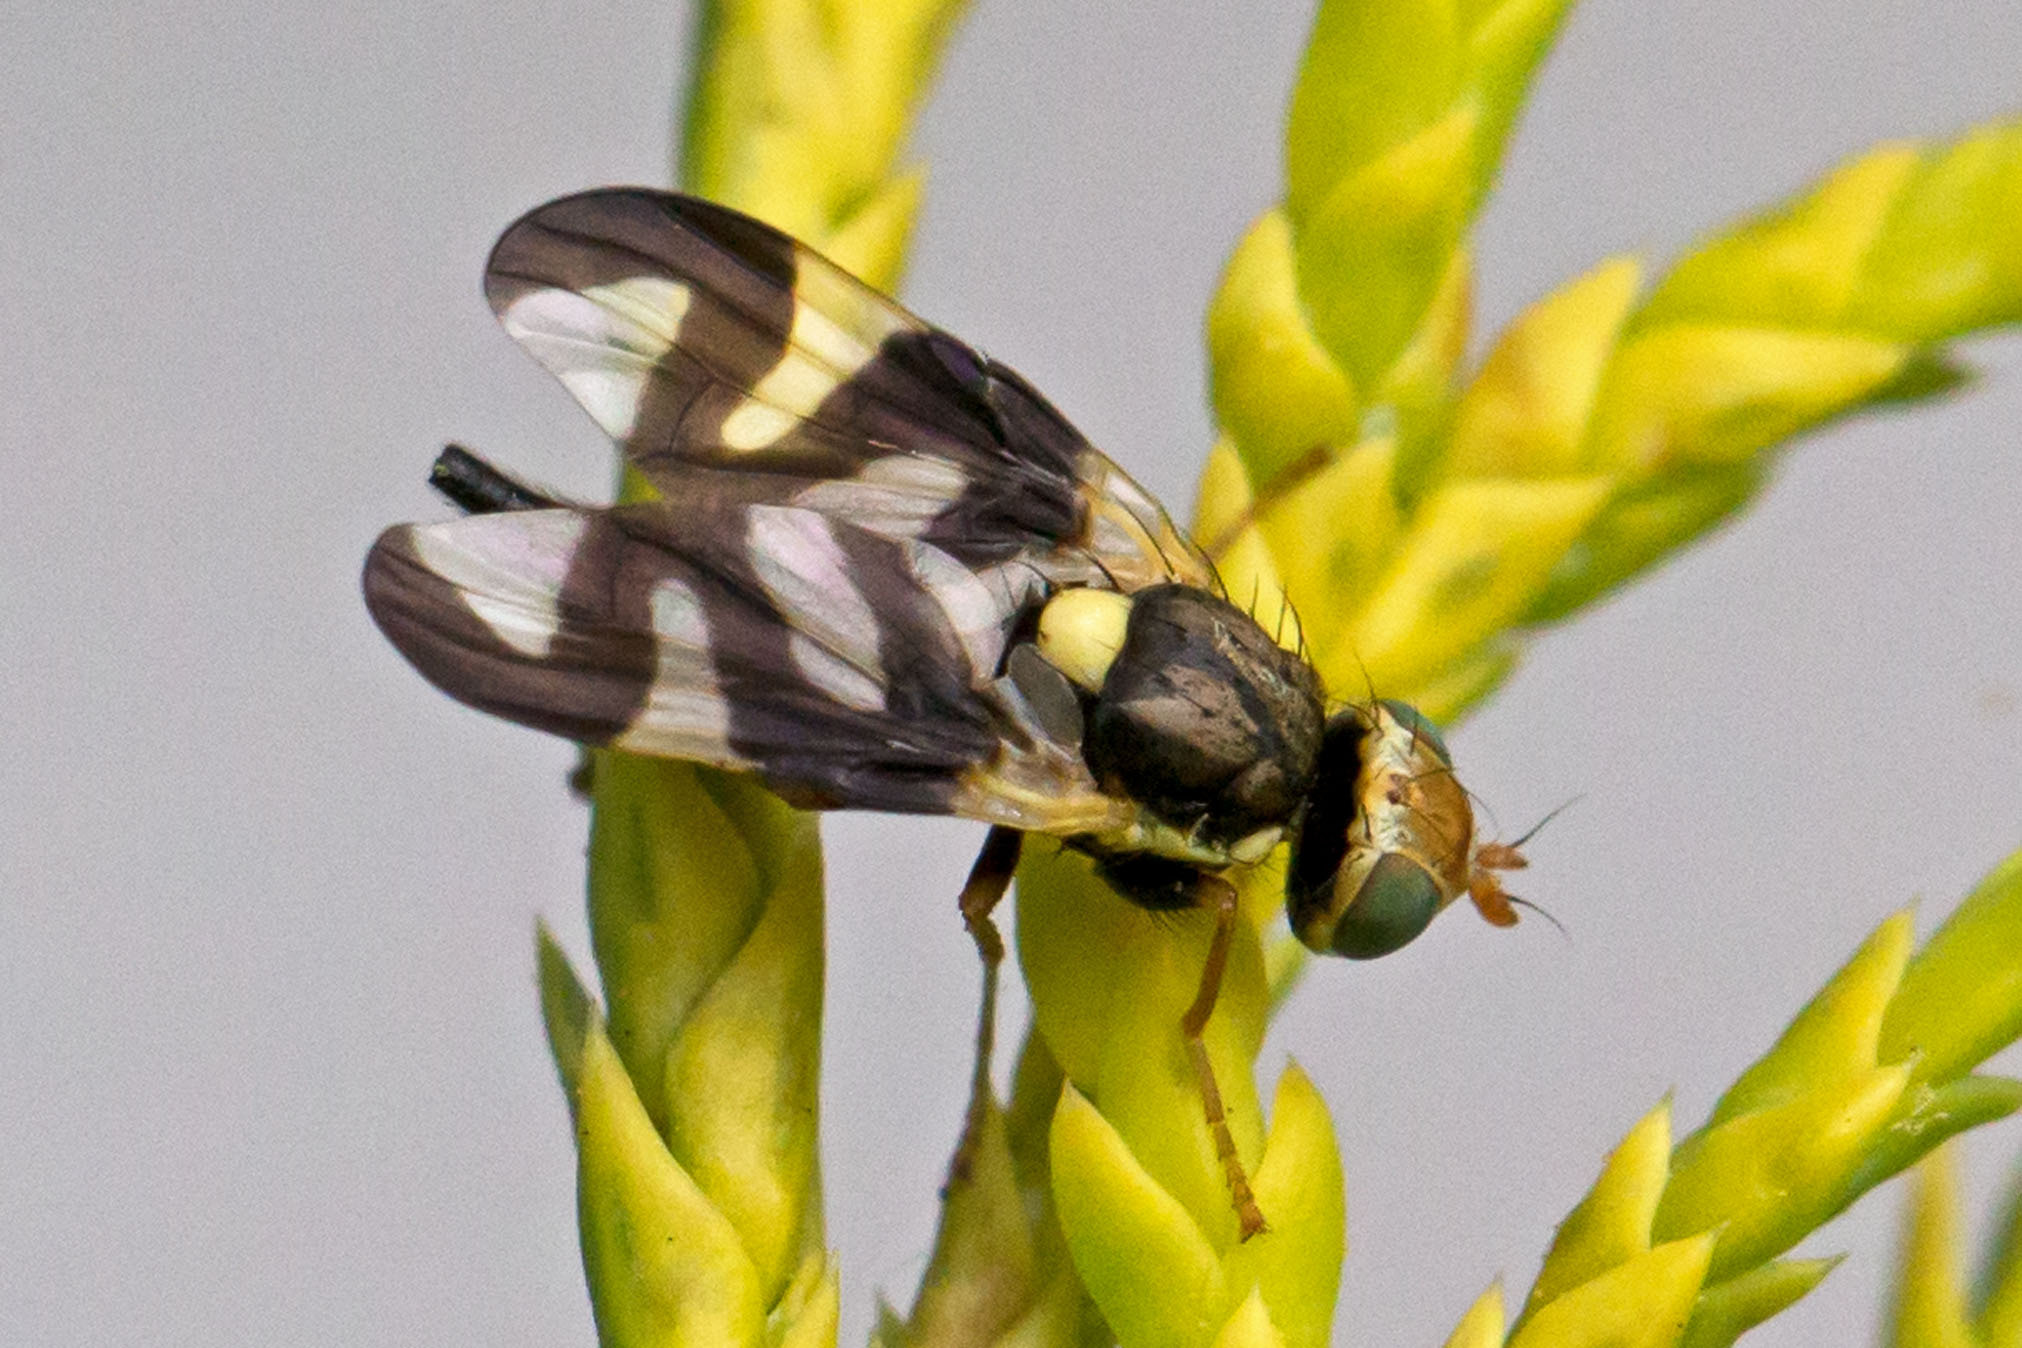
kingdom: Animalia
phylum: Arthropoda
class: Insecta
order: Diptera
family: Tephritidae
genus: Urophora
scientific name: Urophora cardui
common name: Fruit fly
